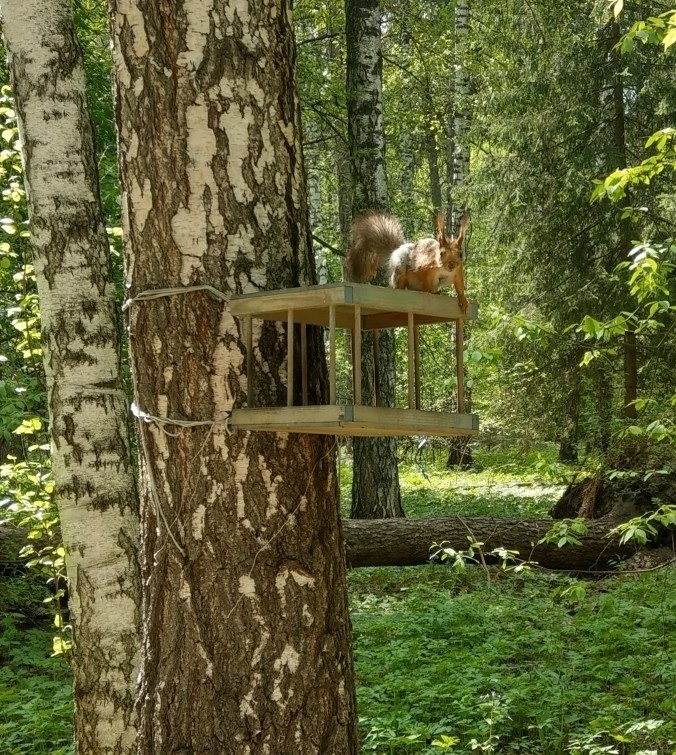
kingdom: Animalia
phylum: Chordata
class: Mammalia
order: Rodentia
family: Sciuridae
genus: Sciurus
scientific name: Sciurus vulgaris
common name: Eurasian red squirrel
